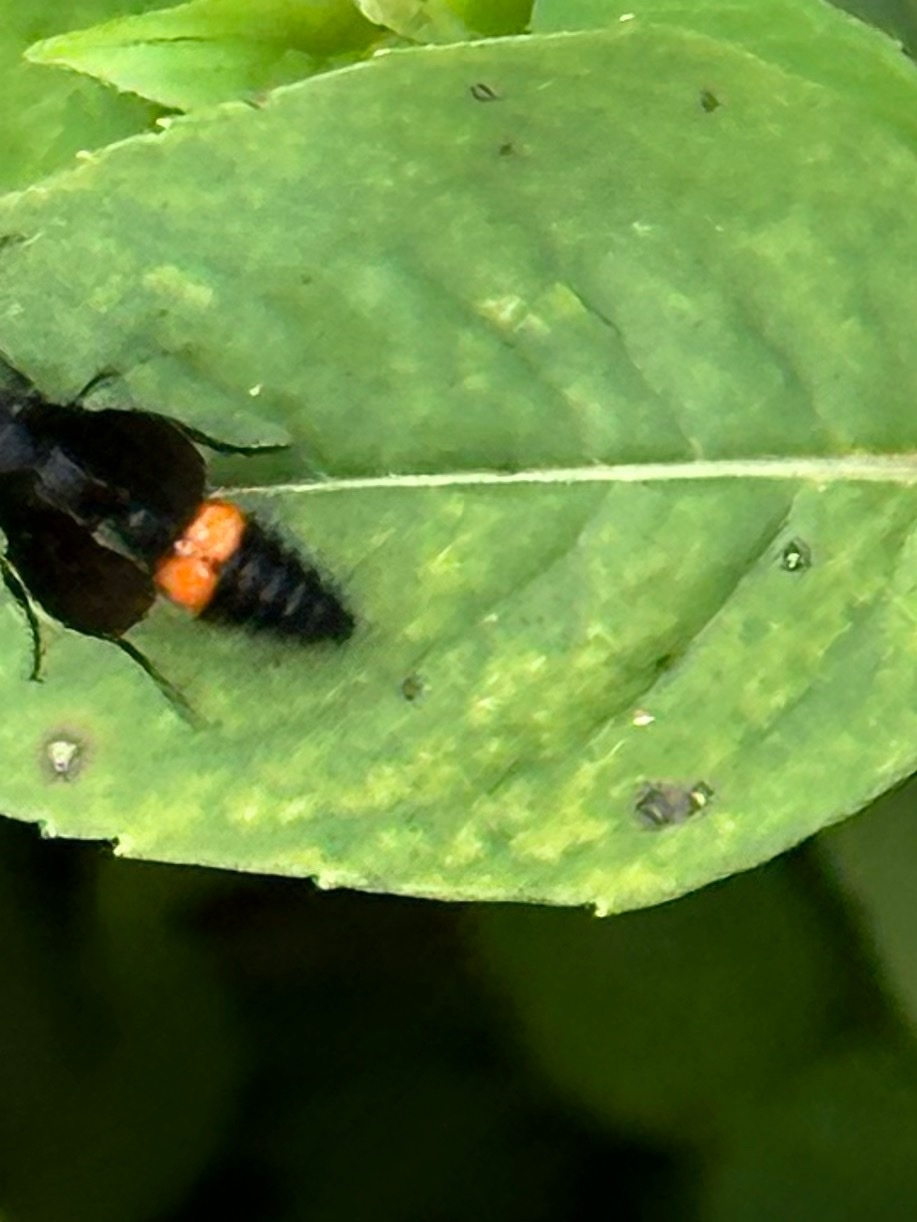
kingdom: Animalia
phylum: Arthropoda
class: Insecta
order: Hymenoptera
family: Mutillidae
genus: Dasymutilla
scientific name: Dasymutilla
